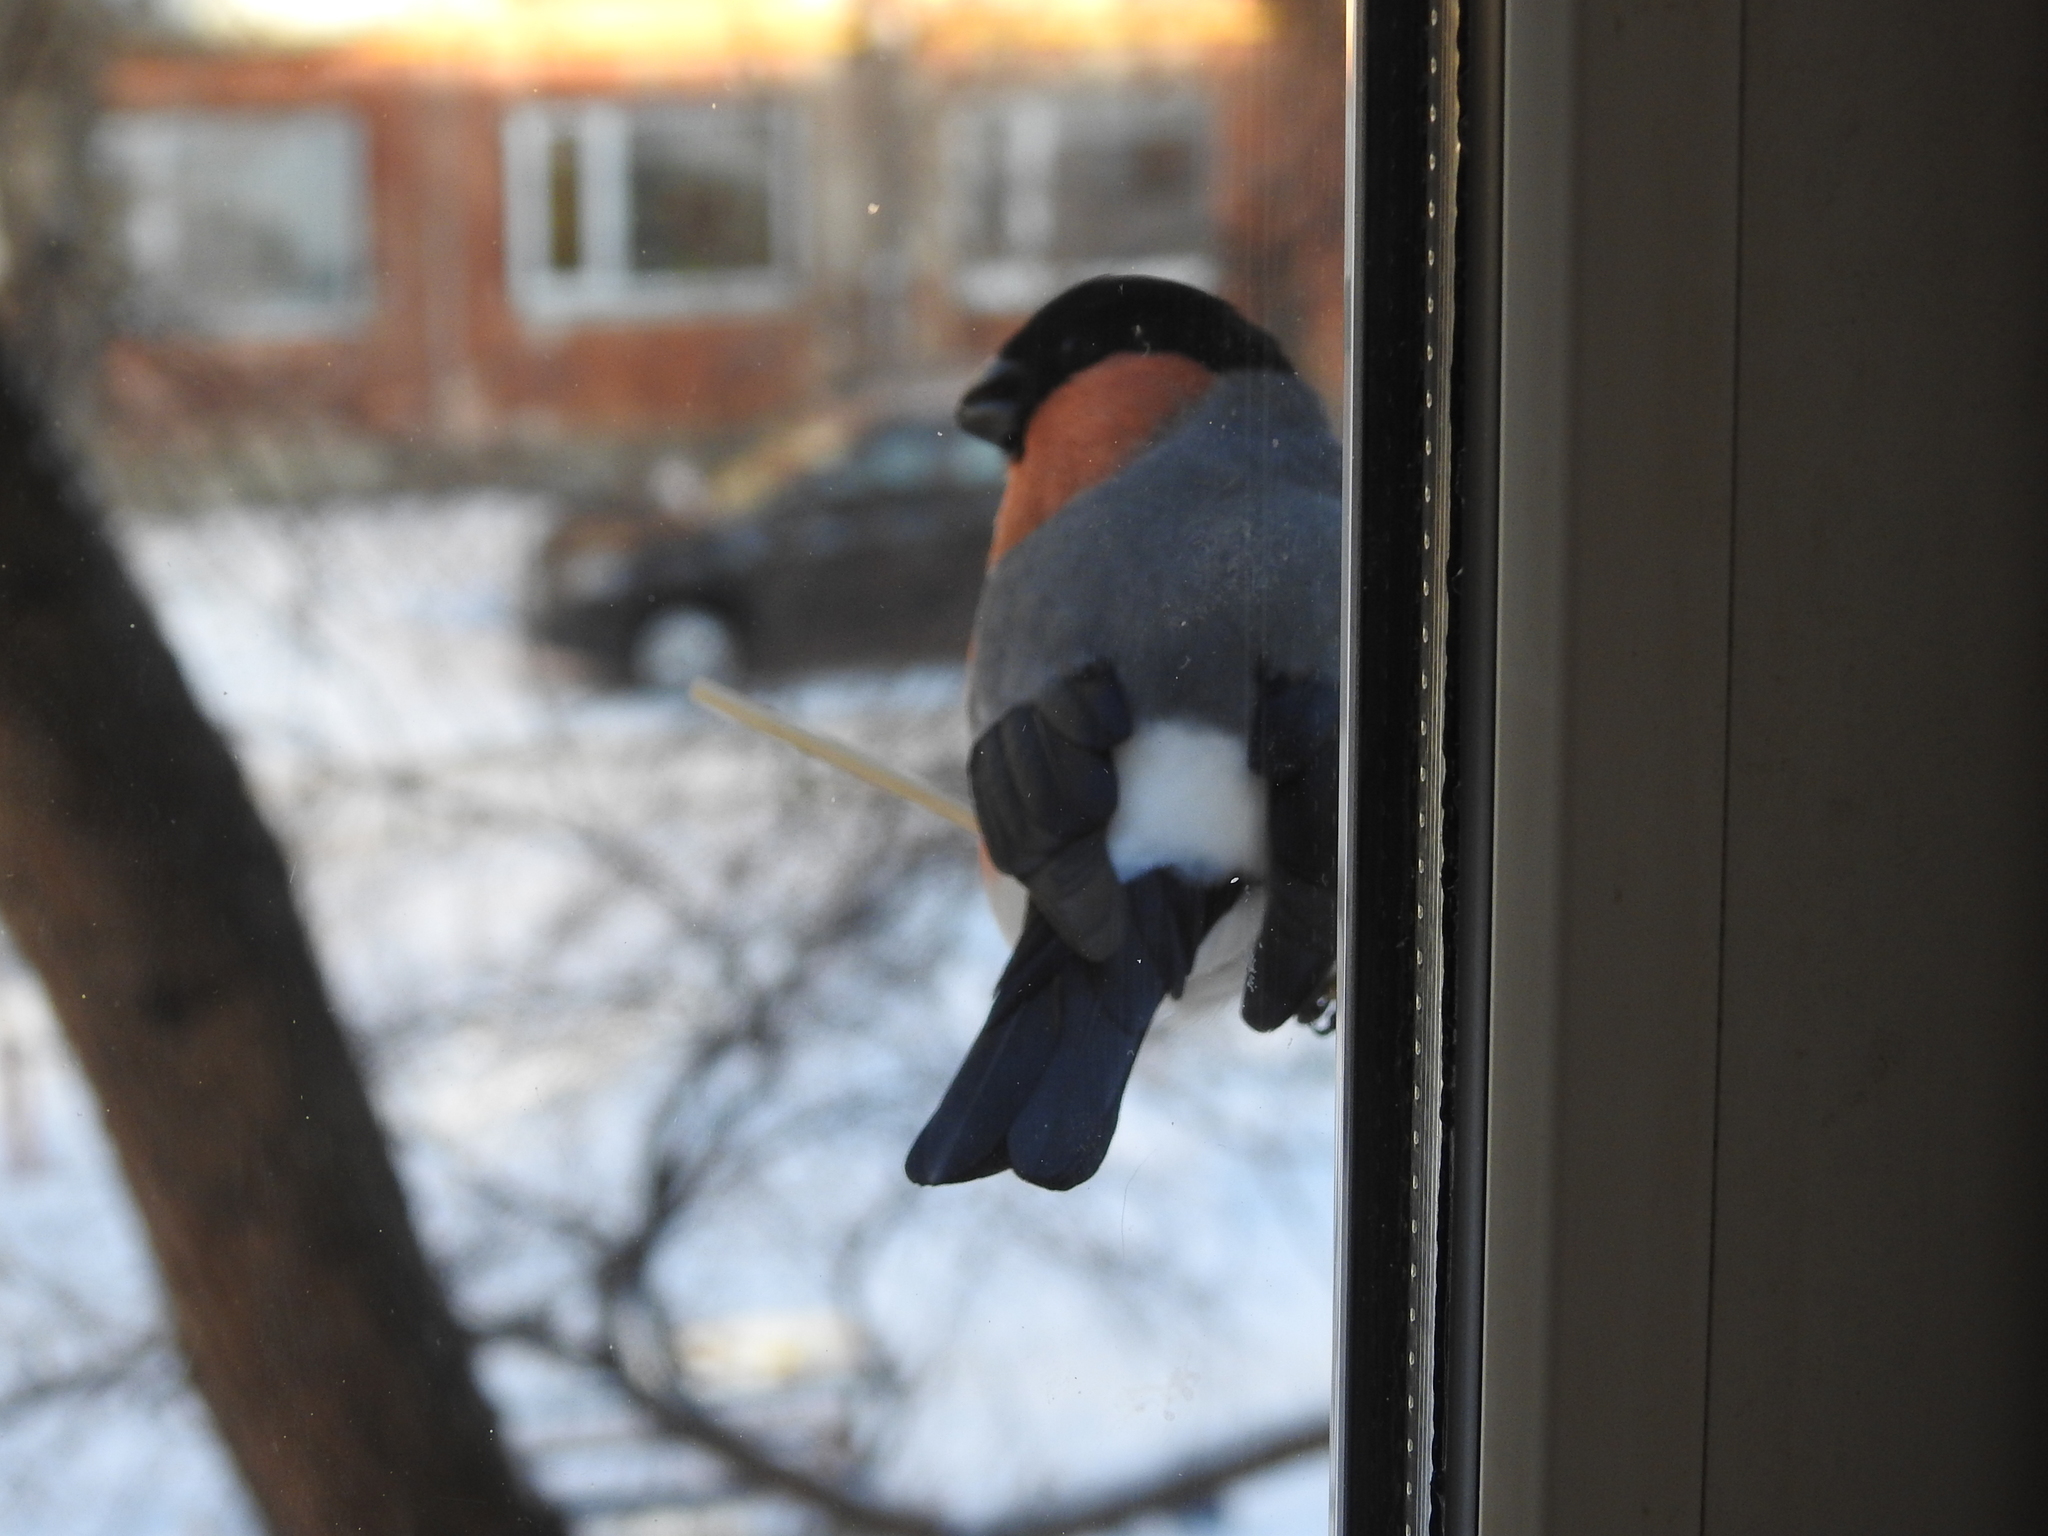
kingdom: Animalia
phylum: Chordata
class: Aves
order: Passeriformes
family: Fringillidae
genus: Pyrrhula
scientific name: Pyrrhula pyrrhula
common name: Eurasian bullfinch
